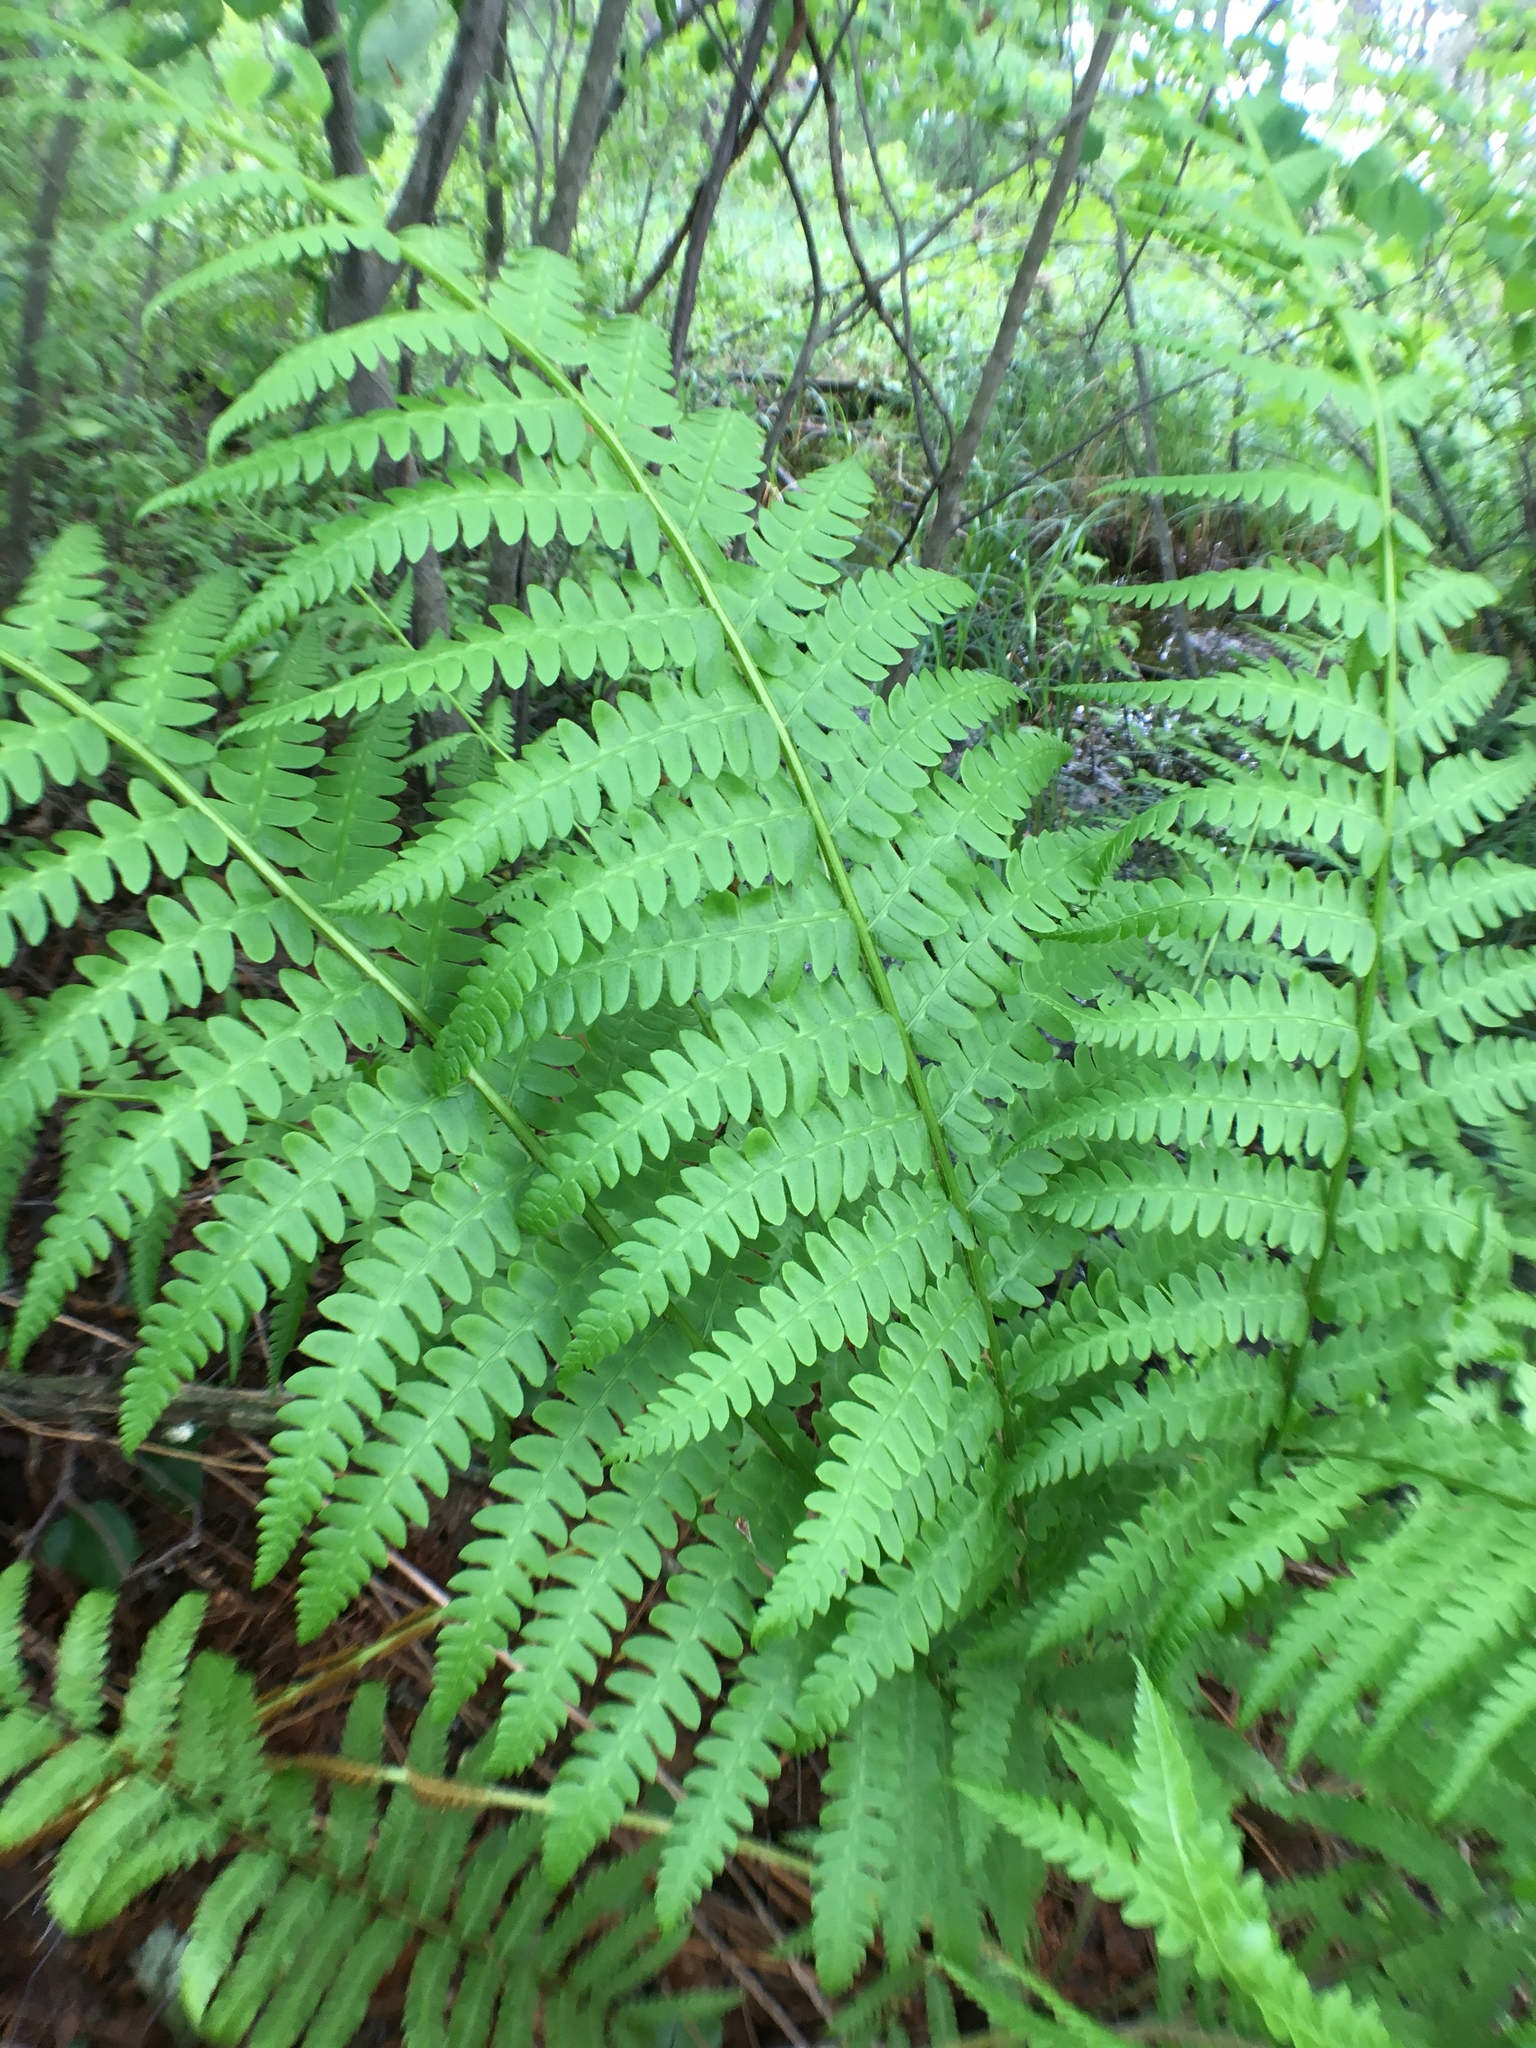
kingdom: Plantae
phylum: Tracheophyta
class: Polypodiopsida
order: Osmundales
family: Osmundaceae
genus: Osmundastrum
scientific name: Osmundastrum cinnamomeum
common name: Cinnamon fern
